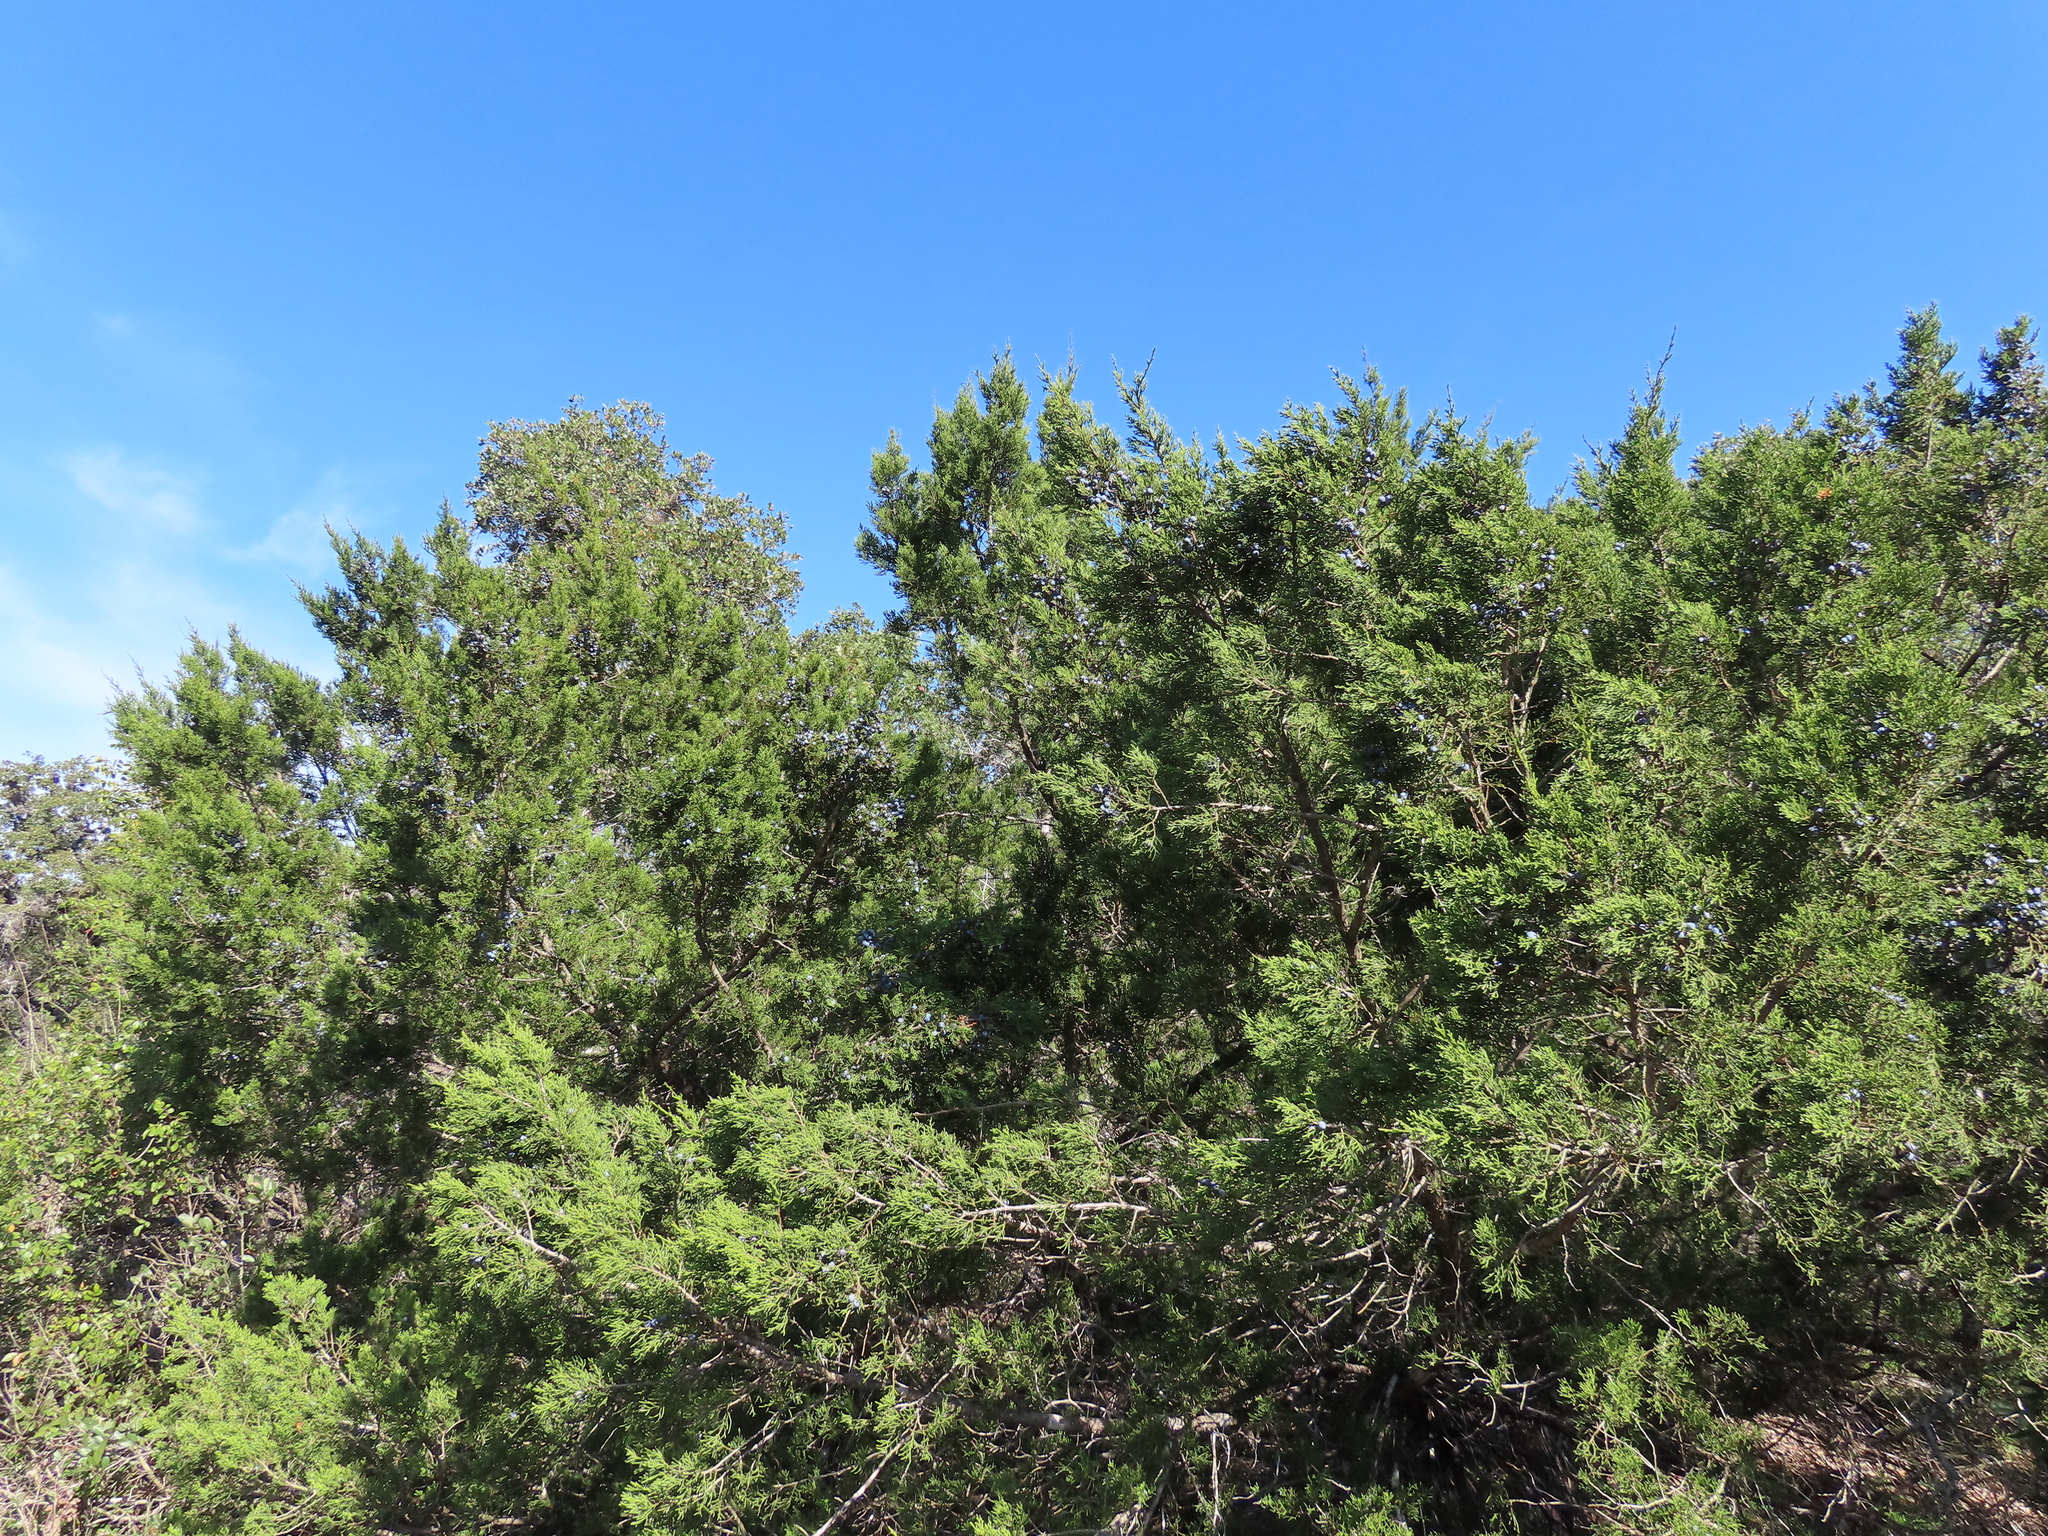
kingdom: Plantae
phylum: Tracheophyta
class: Pinopsida
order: Pinales
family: Cupressaceae
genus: Juniperus
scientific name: Juniperus ashei
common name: Mexican juniper
